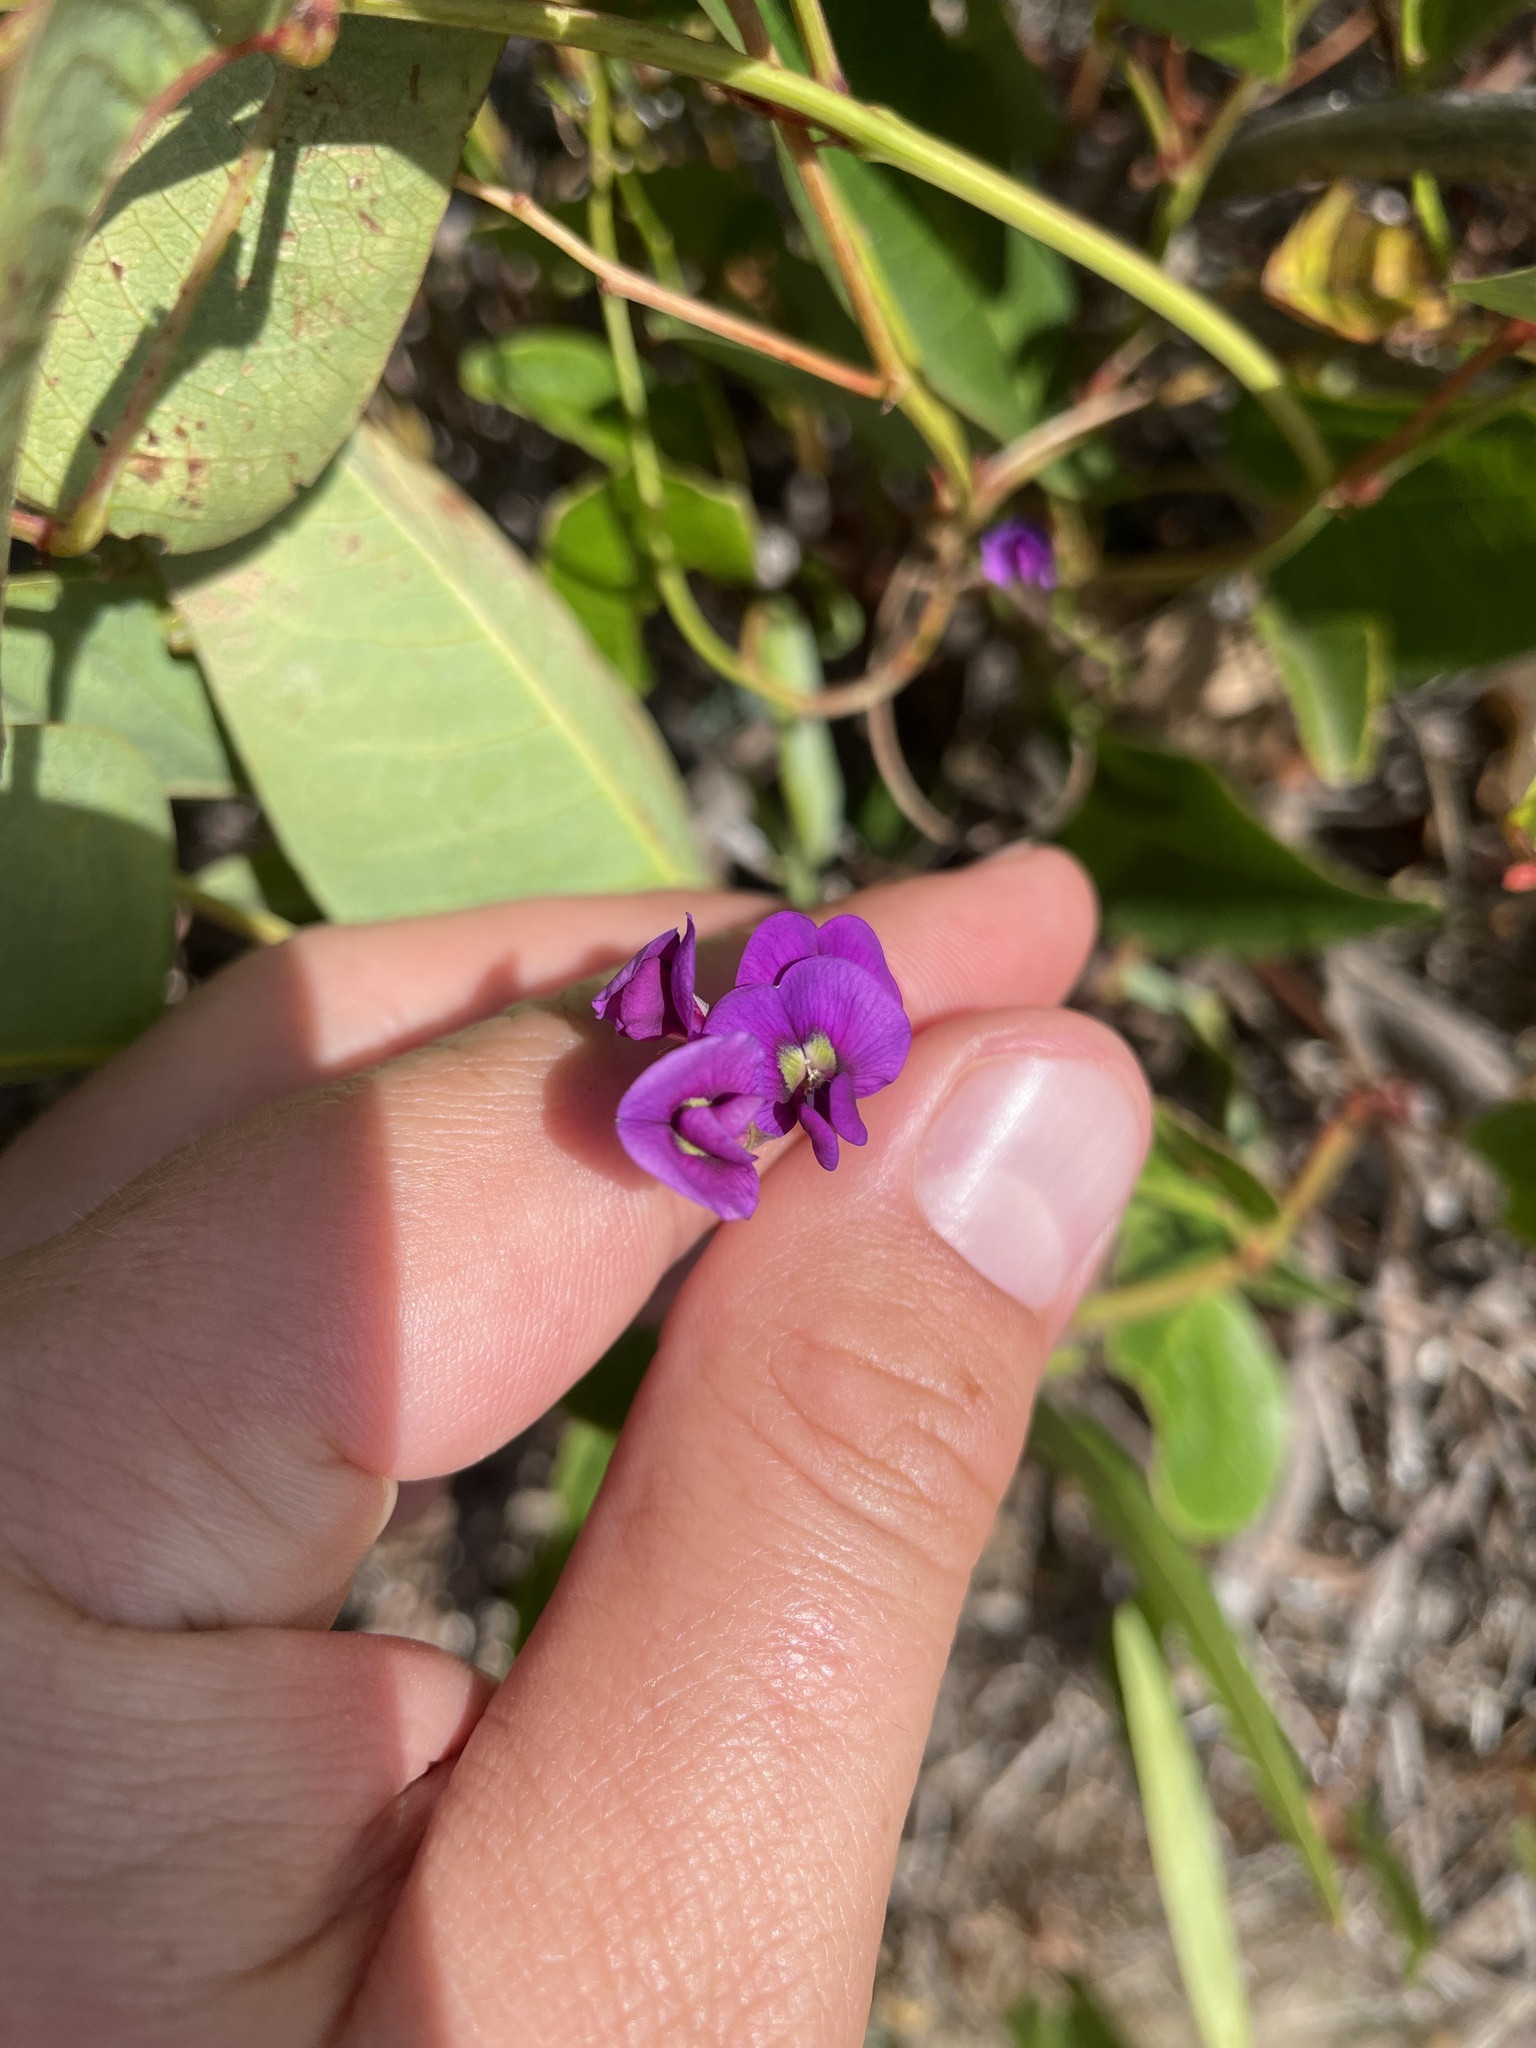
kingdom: Plantae
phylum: Tracheophyta
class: Magnoliopsida
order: Fabales
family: Fabaceae
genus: Hardenbergia
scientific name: Hardenbergia violacea
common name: Coral-pea
